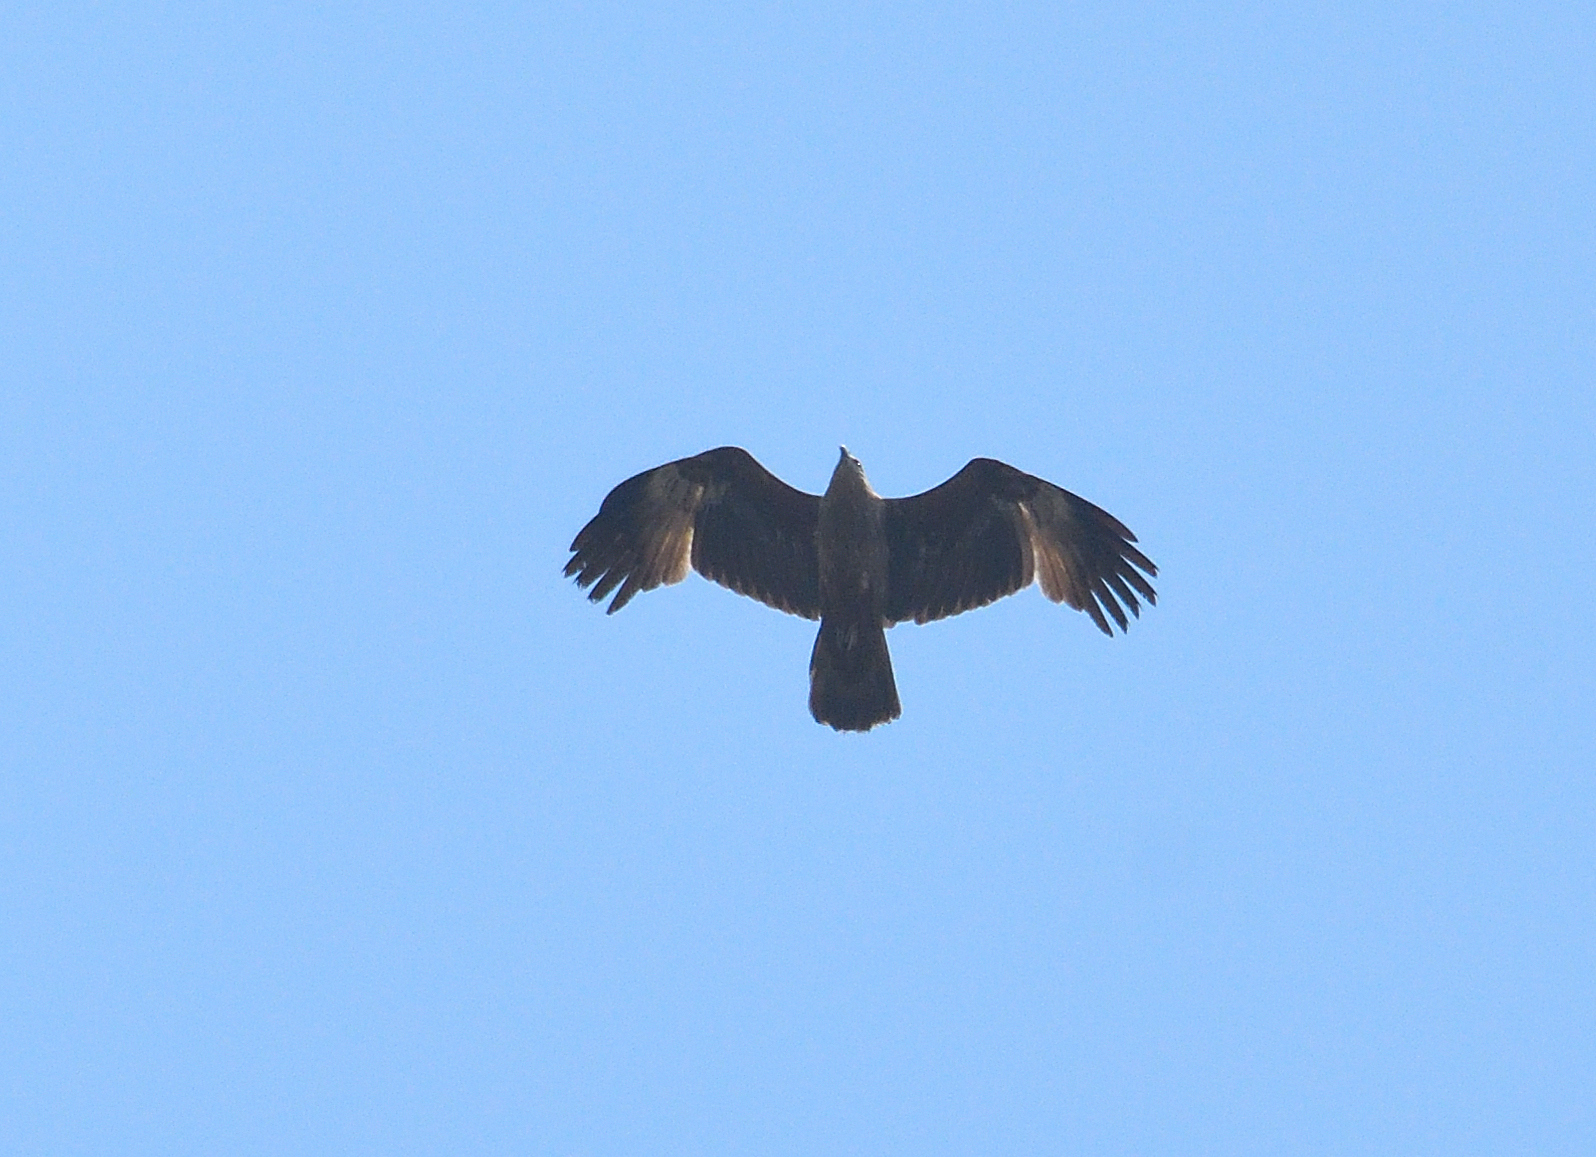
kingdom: Animalia
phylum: Chordata
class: Aves
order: Accipitriformes
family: Accipitridae
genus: Haliastur
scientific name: Haliastur indus
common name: Brahminy kite
